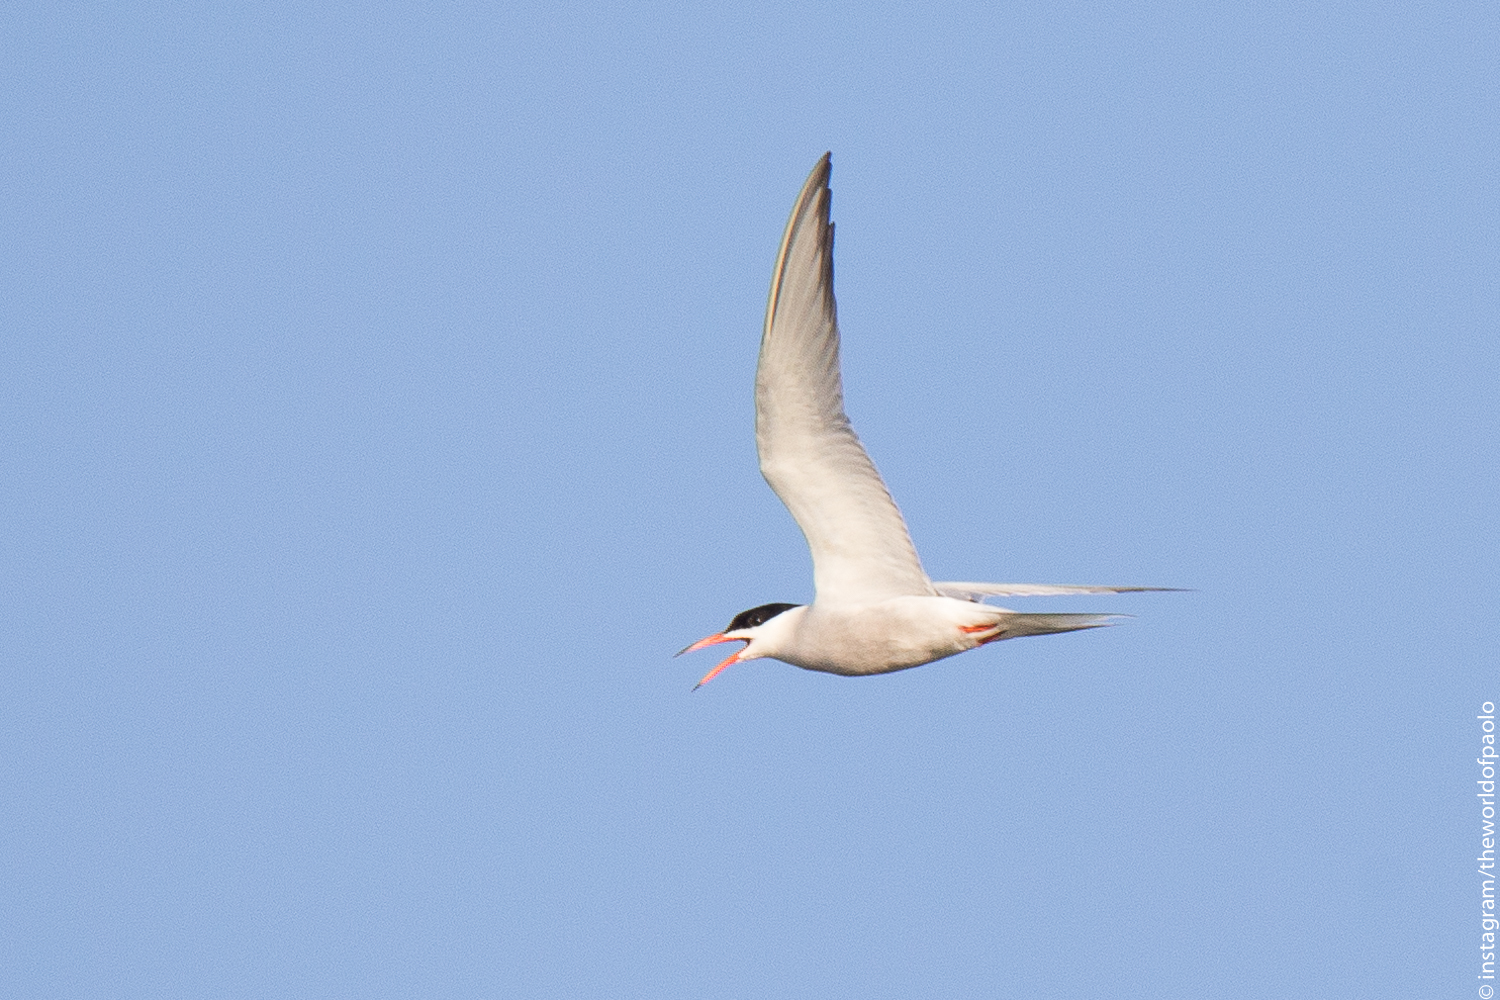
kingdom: Animalia
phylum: Chordata
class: Aves
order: Charadriiformes
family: Laridae
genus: Sterna
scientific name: Sterna hirundo
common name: Common tern
